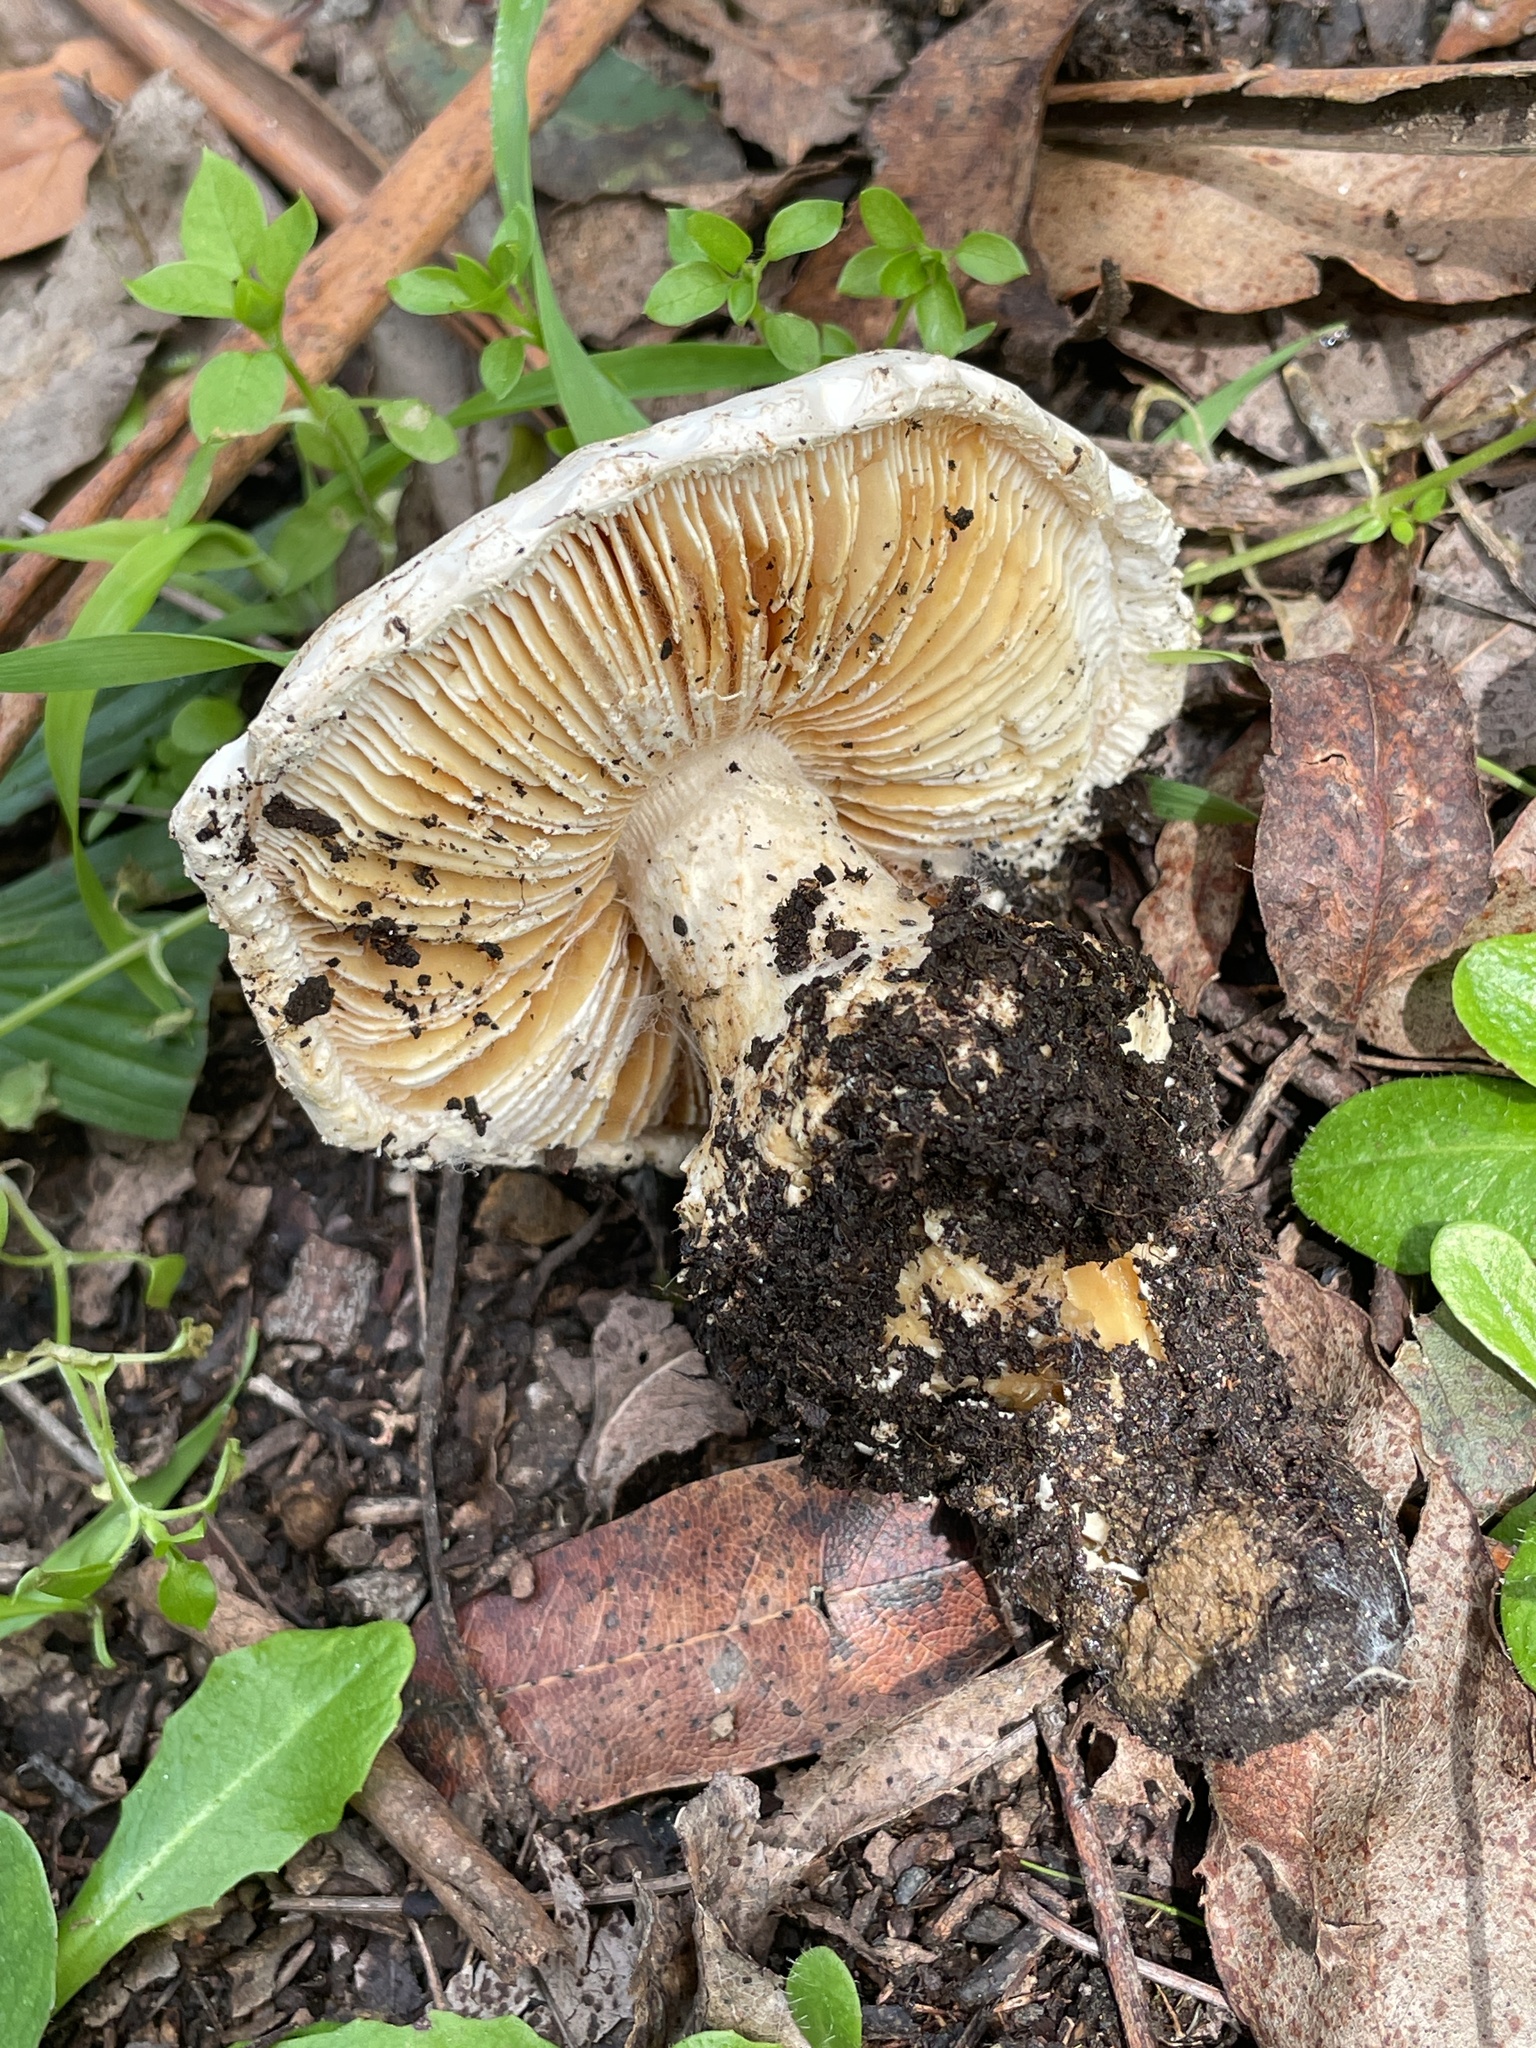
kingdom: Fungi
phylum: Basidiomycota
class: Agaricomycetes
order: Agaricales
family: Amanitaceae
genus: Amanita
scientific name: Amanita magniverrucata
